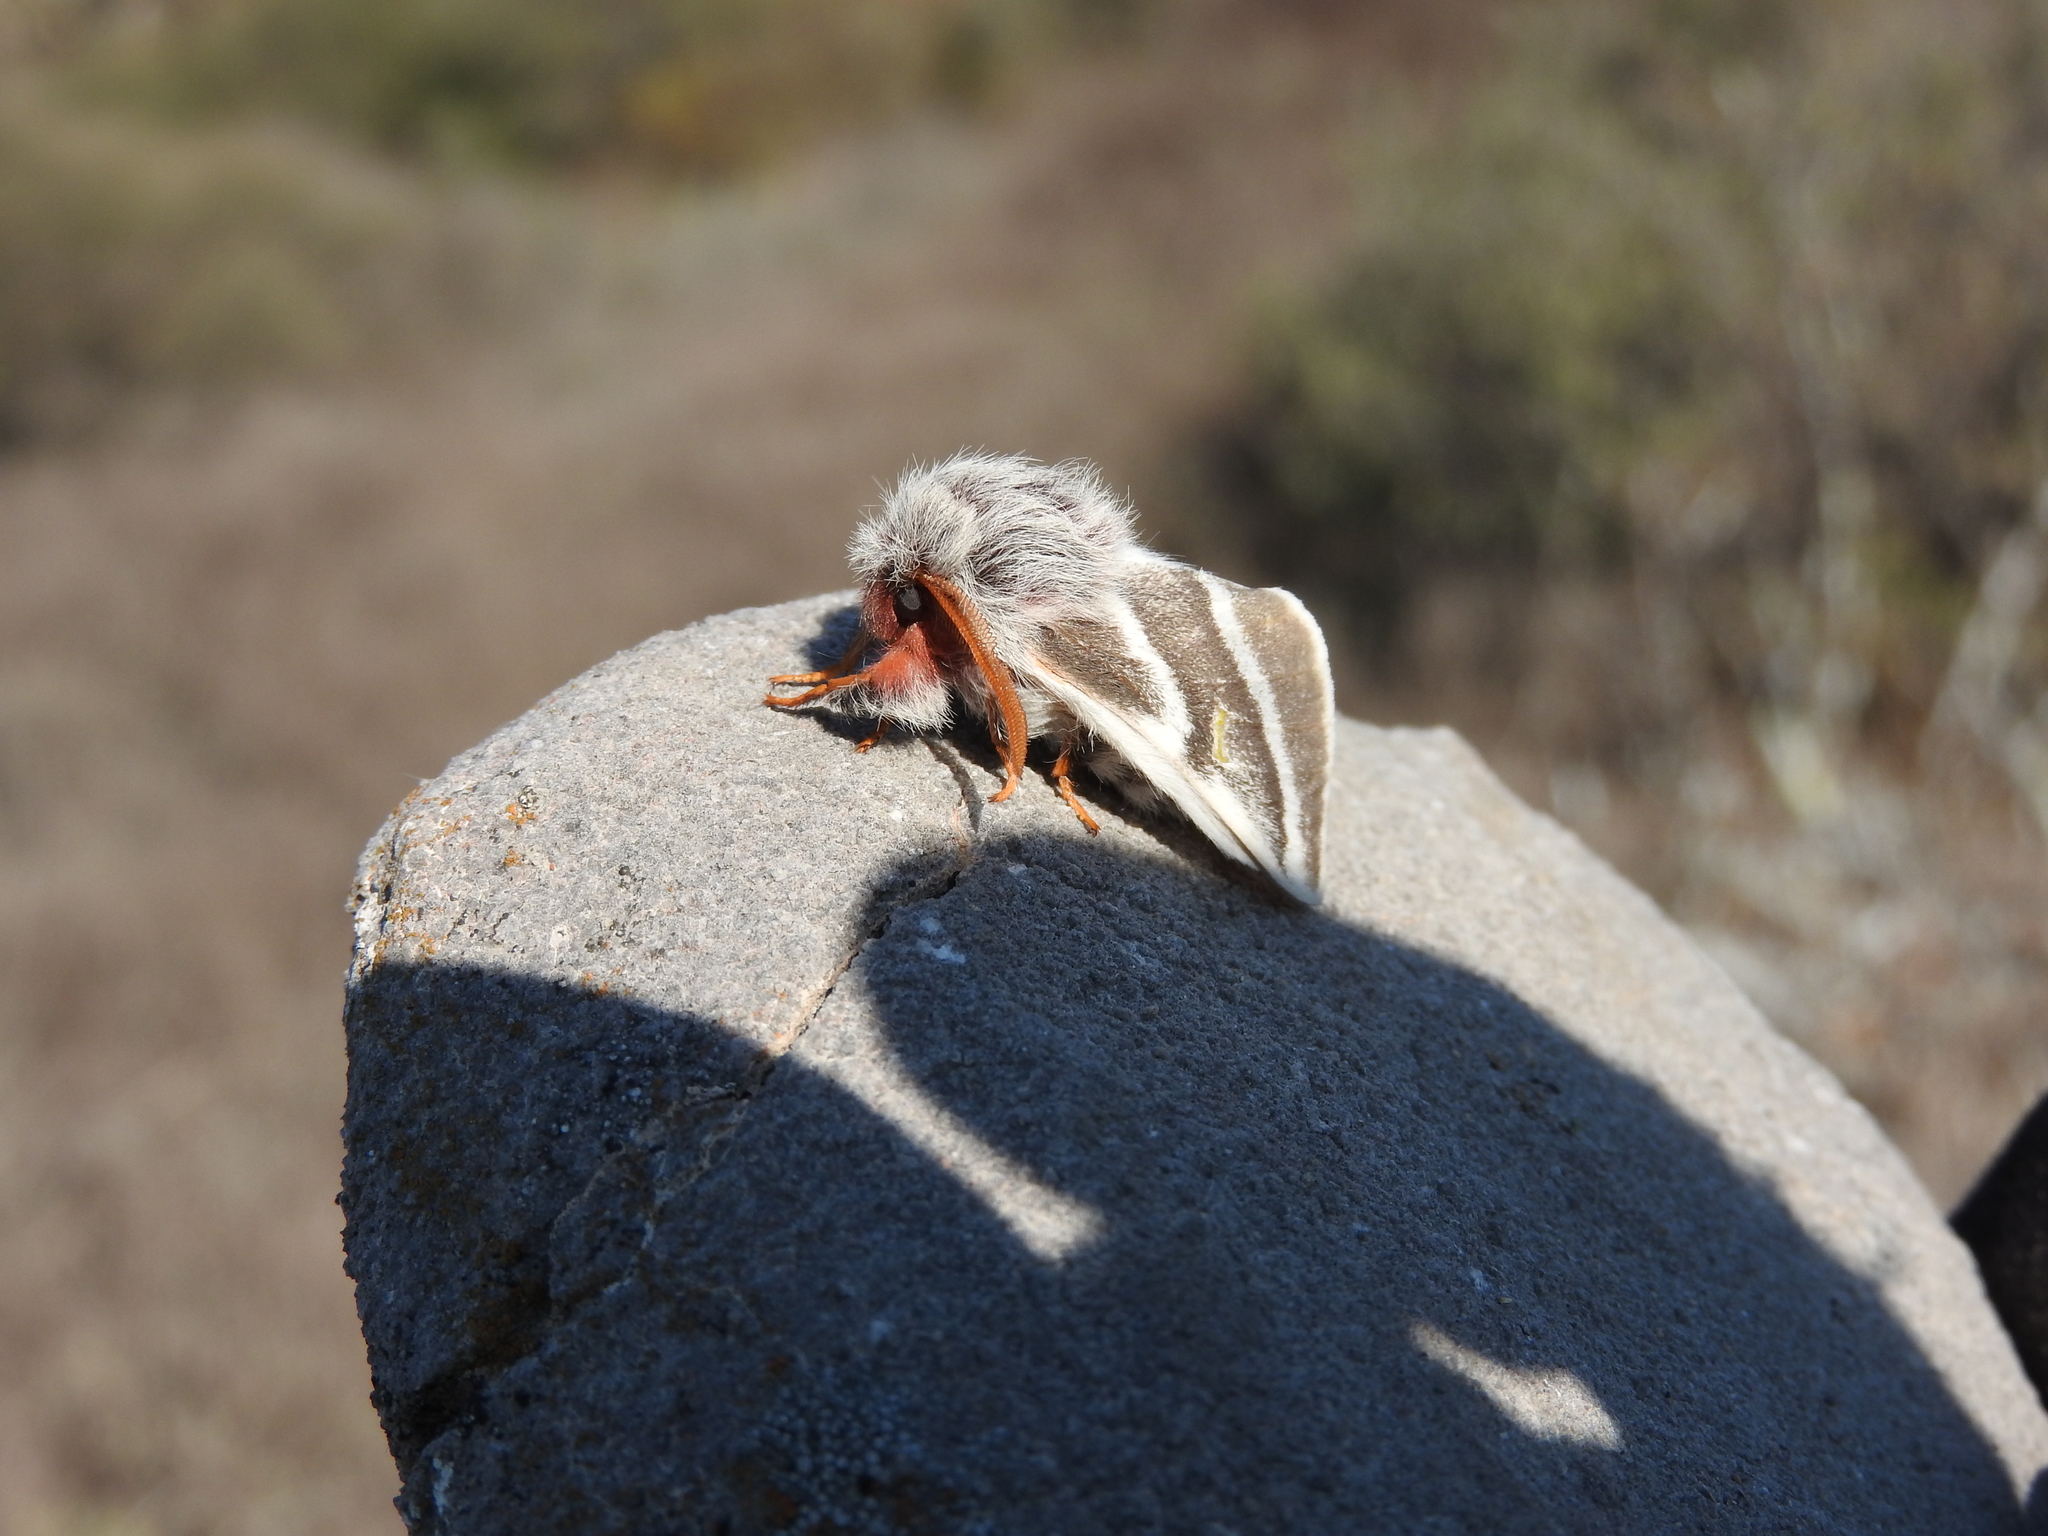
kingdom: Animalia
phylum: Arthropoda
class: Insecta
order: Lepidoptera
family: Saturniidae
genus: Hemileuca
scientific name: Hemileuca tricolor
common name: Tricolor buckmoth
